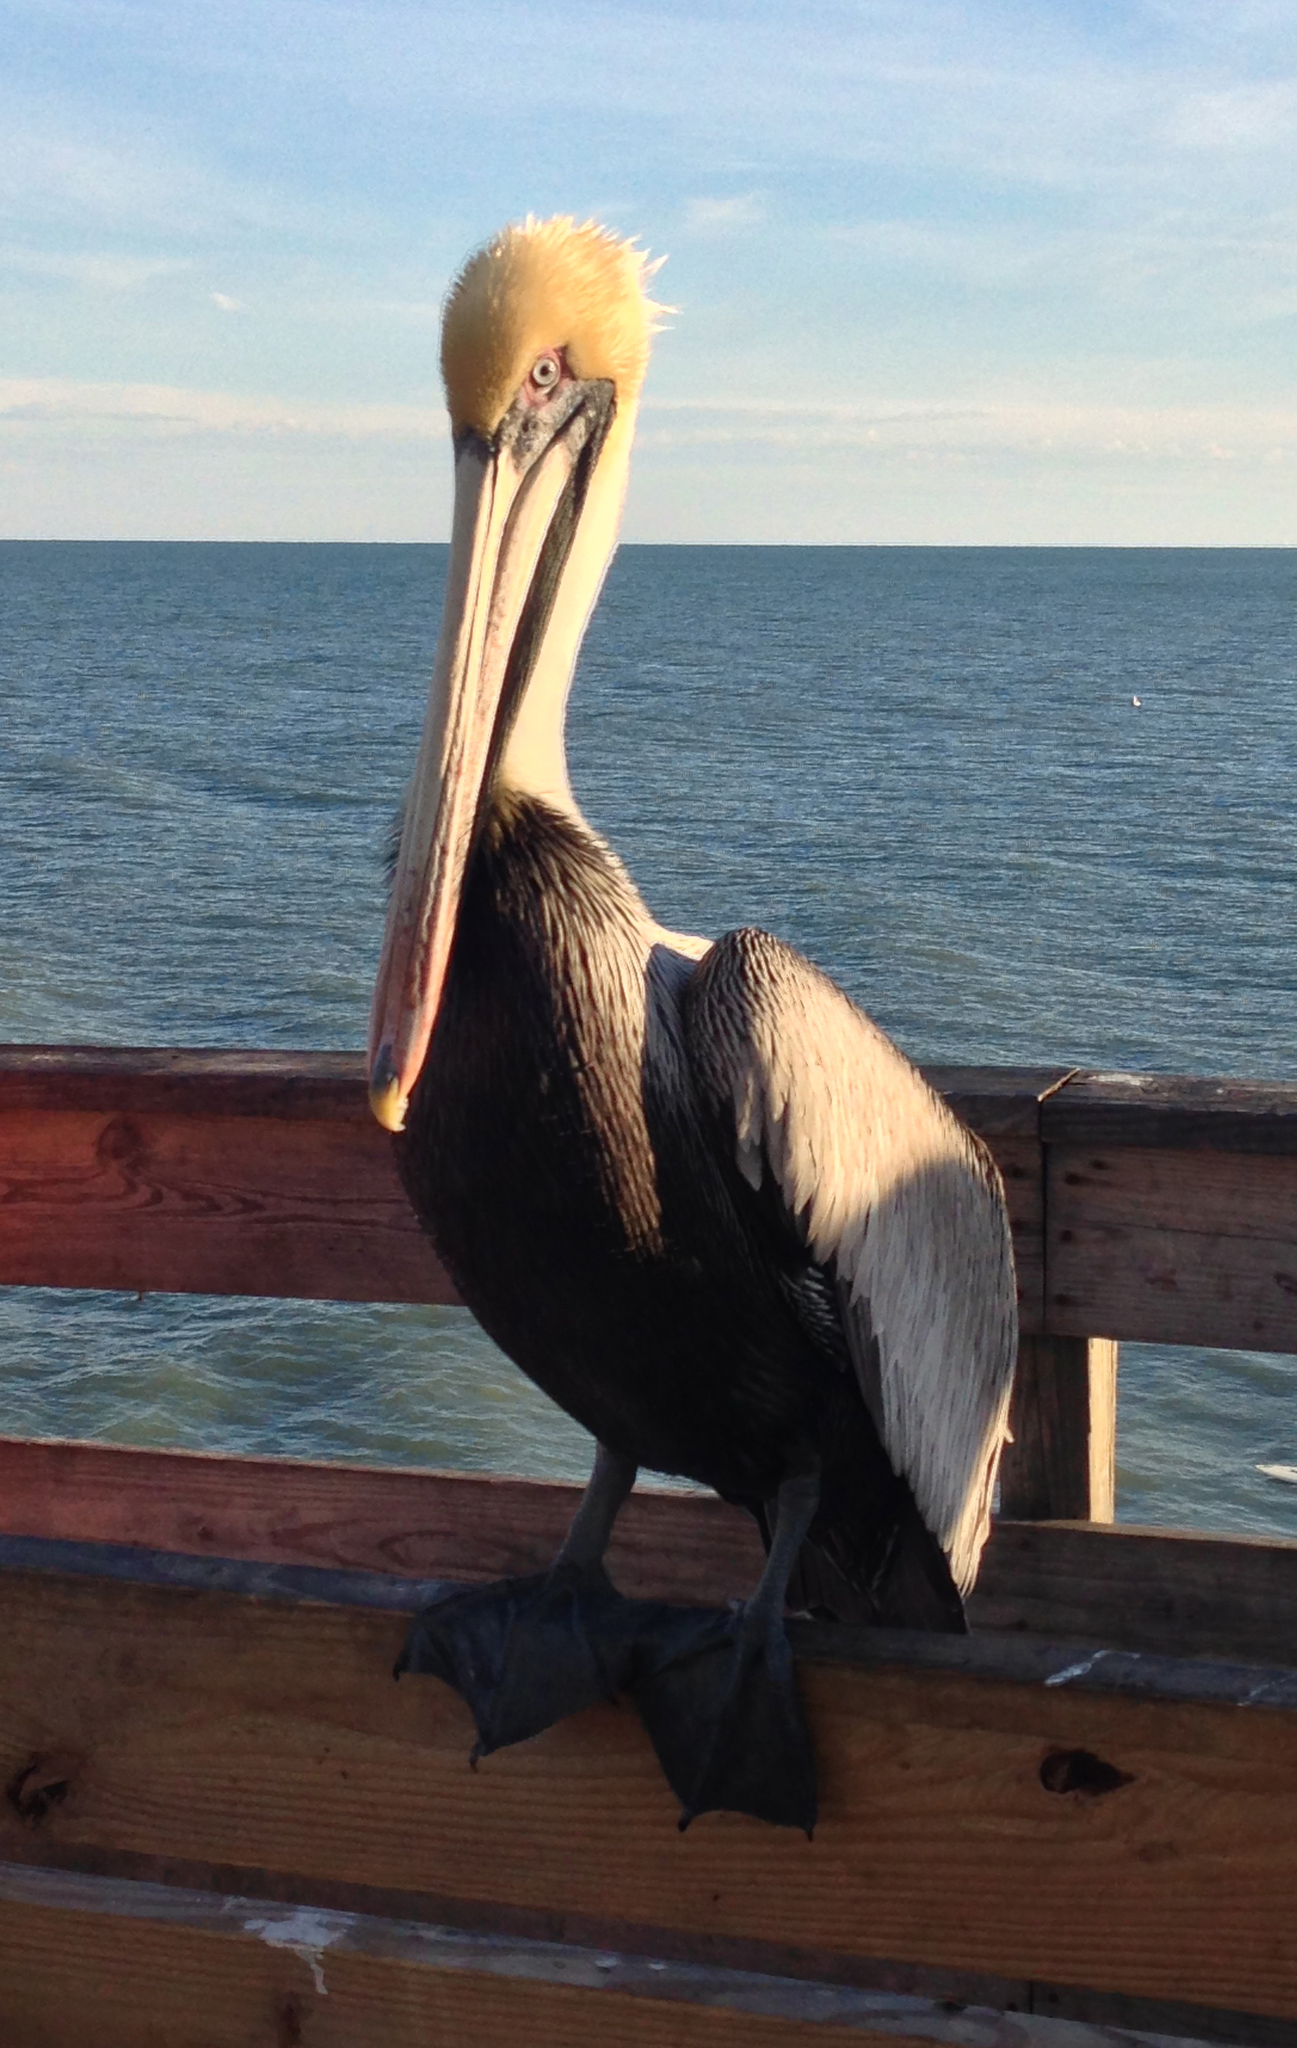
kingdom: Animalia
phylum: Chordata
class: Aves
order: Pelecaniformes
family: Pelecanidae
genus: Pelecanus
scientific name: Pelecanus occidentalis
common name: Brown pelican
